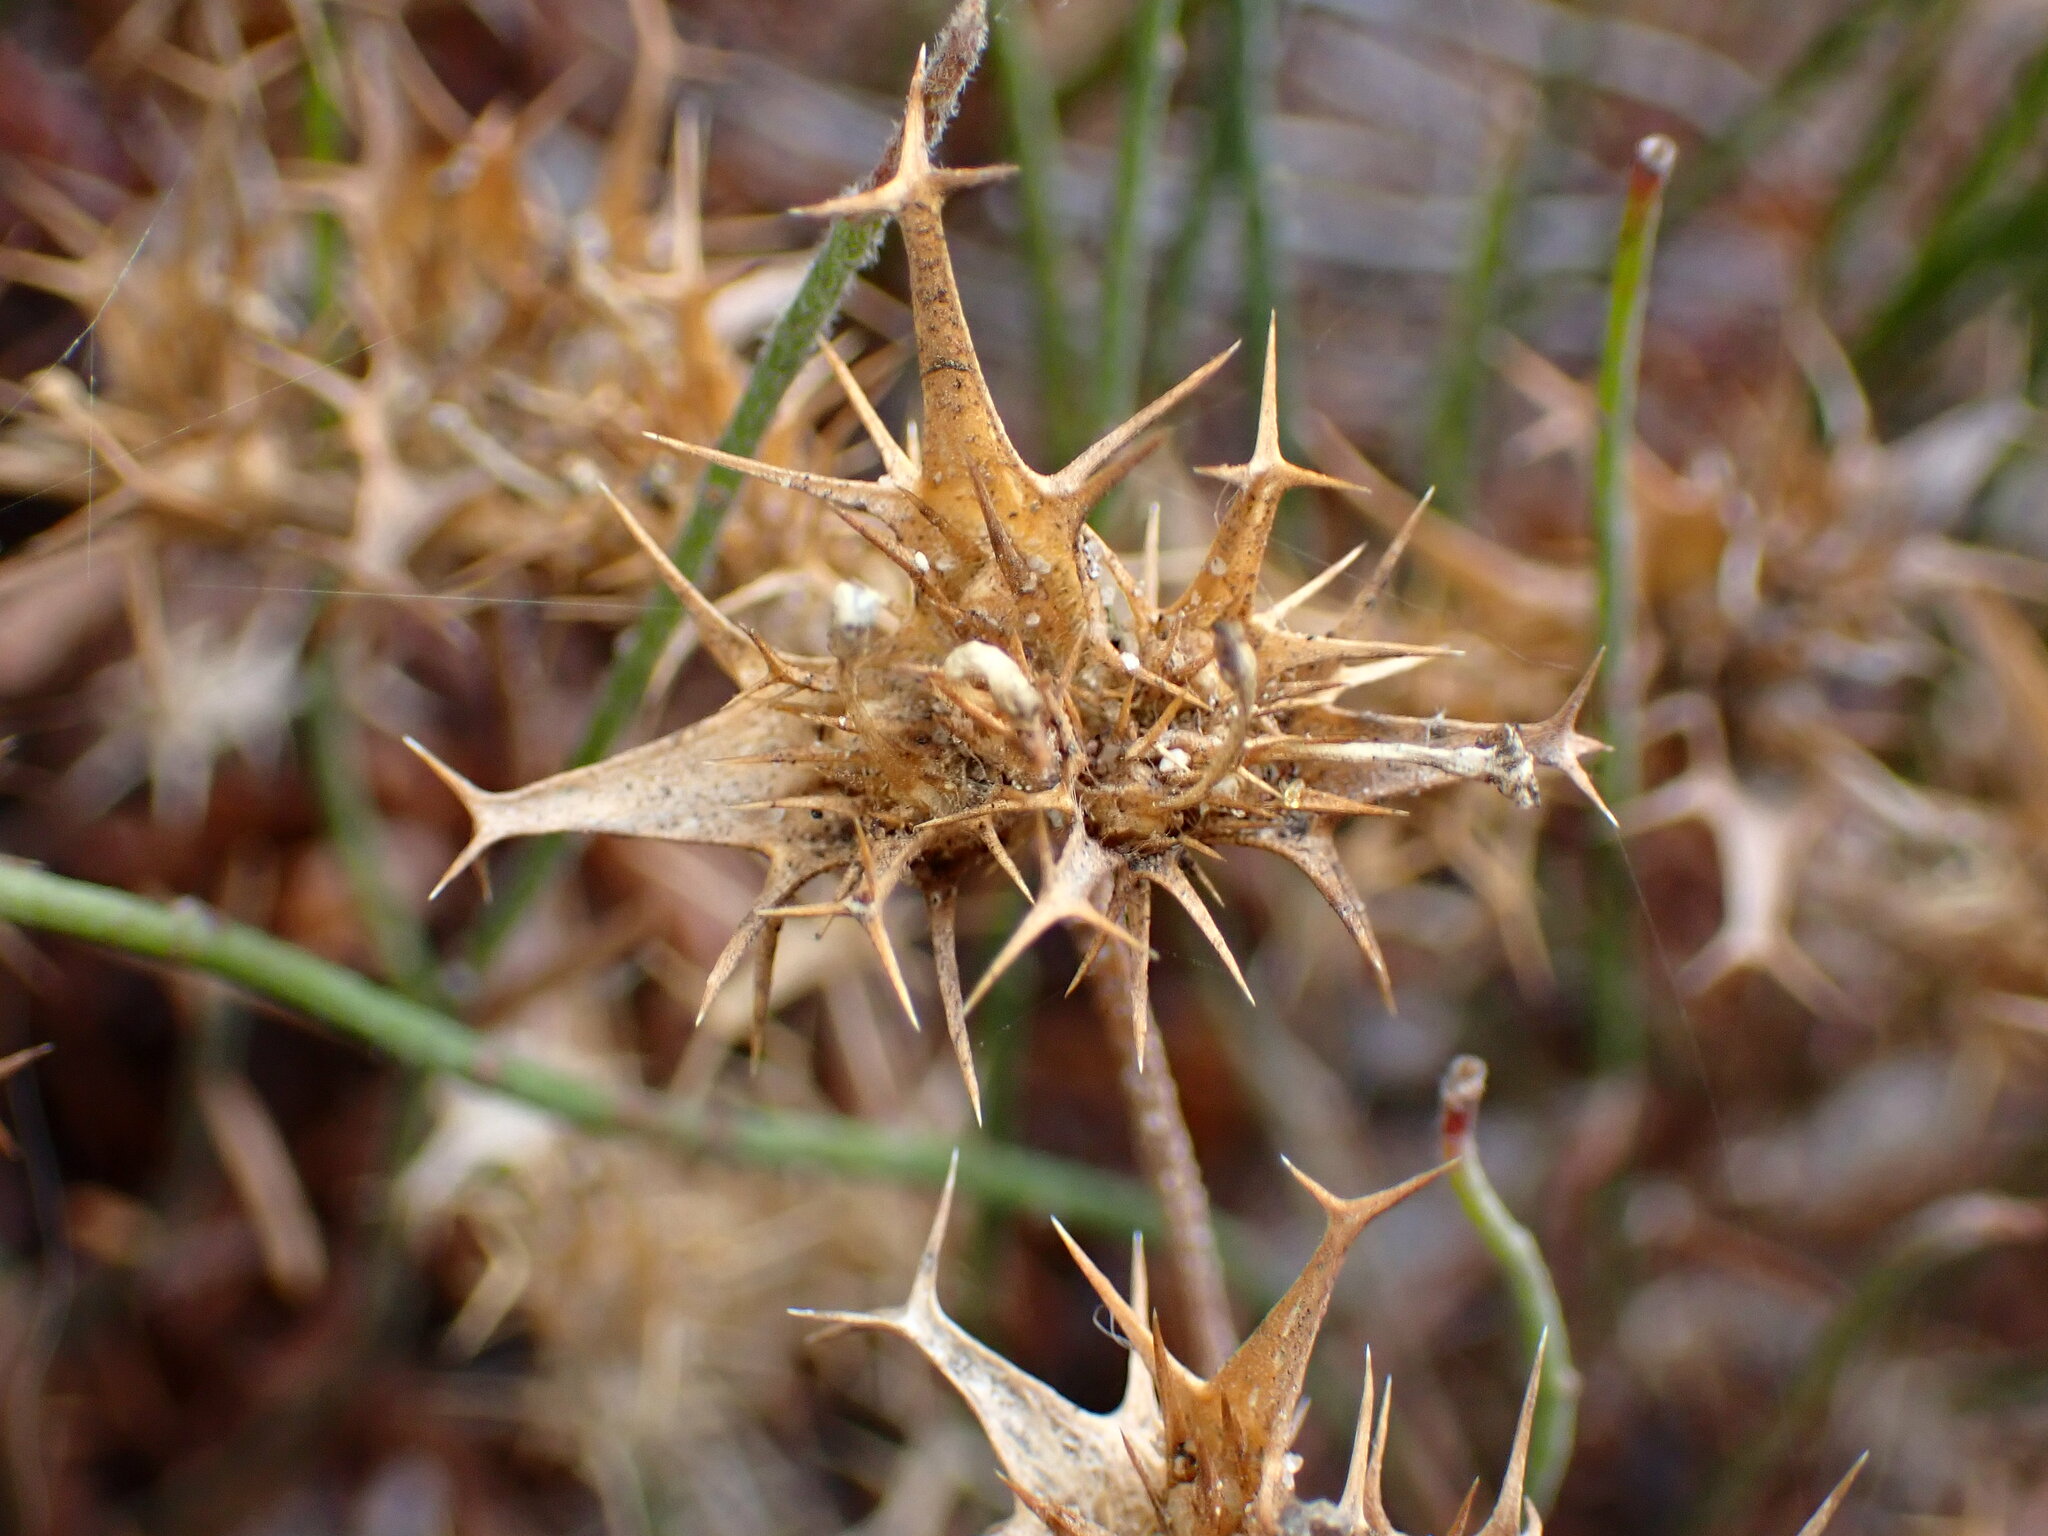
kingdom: Plantae
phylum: Tracheophyta
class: Magnoliopsida
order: Ericales
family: Polemoniaceae
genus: Navarretia
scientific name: Navarretia hamata
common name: Hooked navarretia
